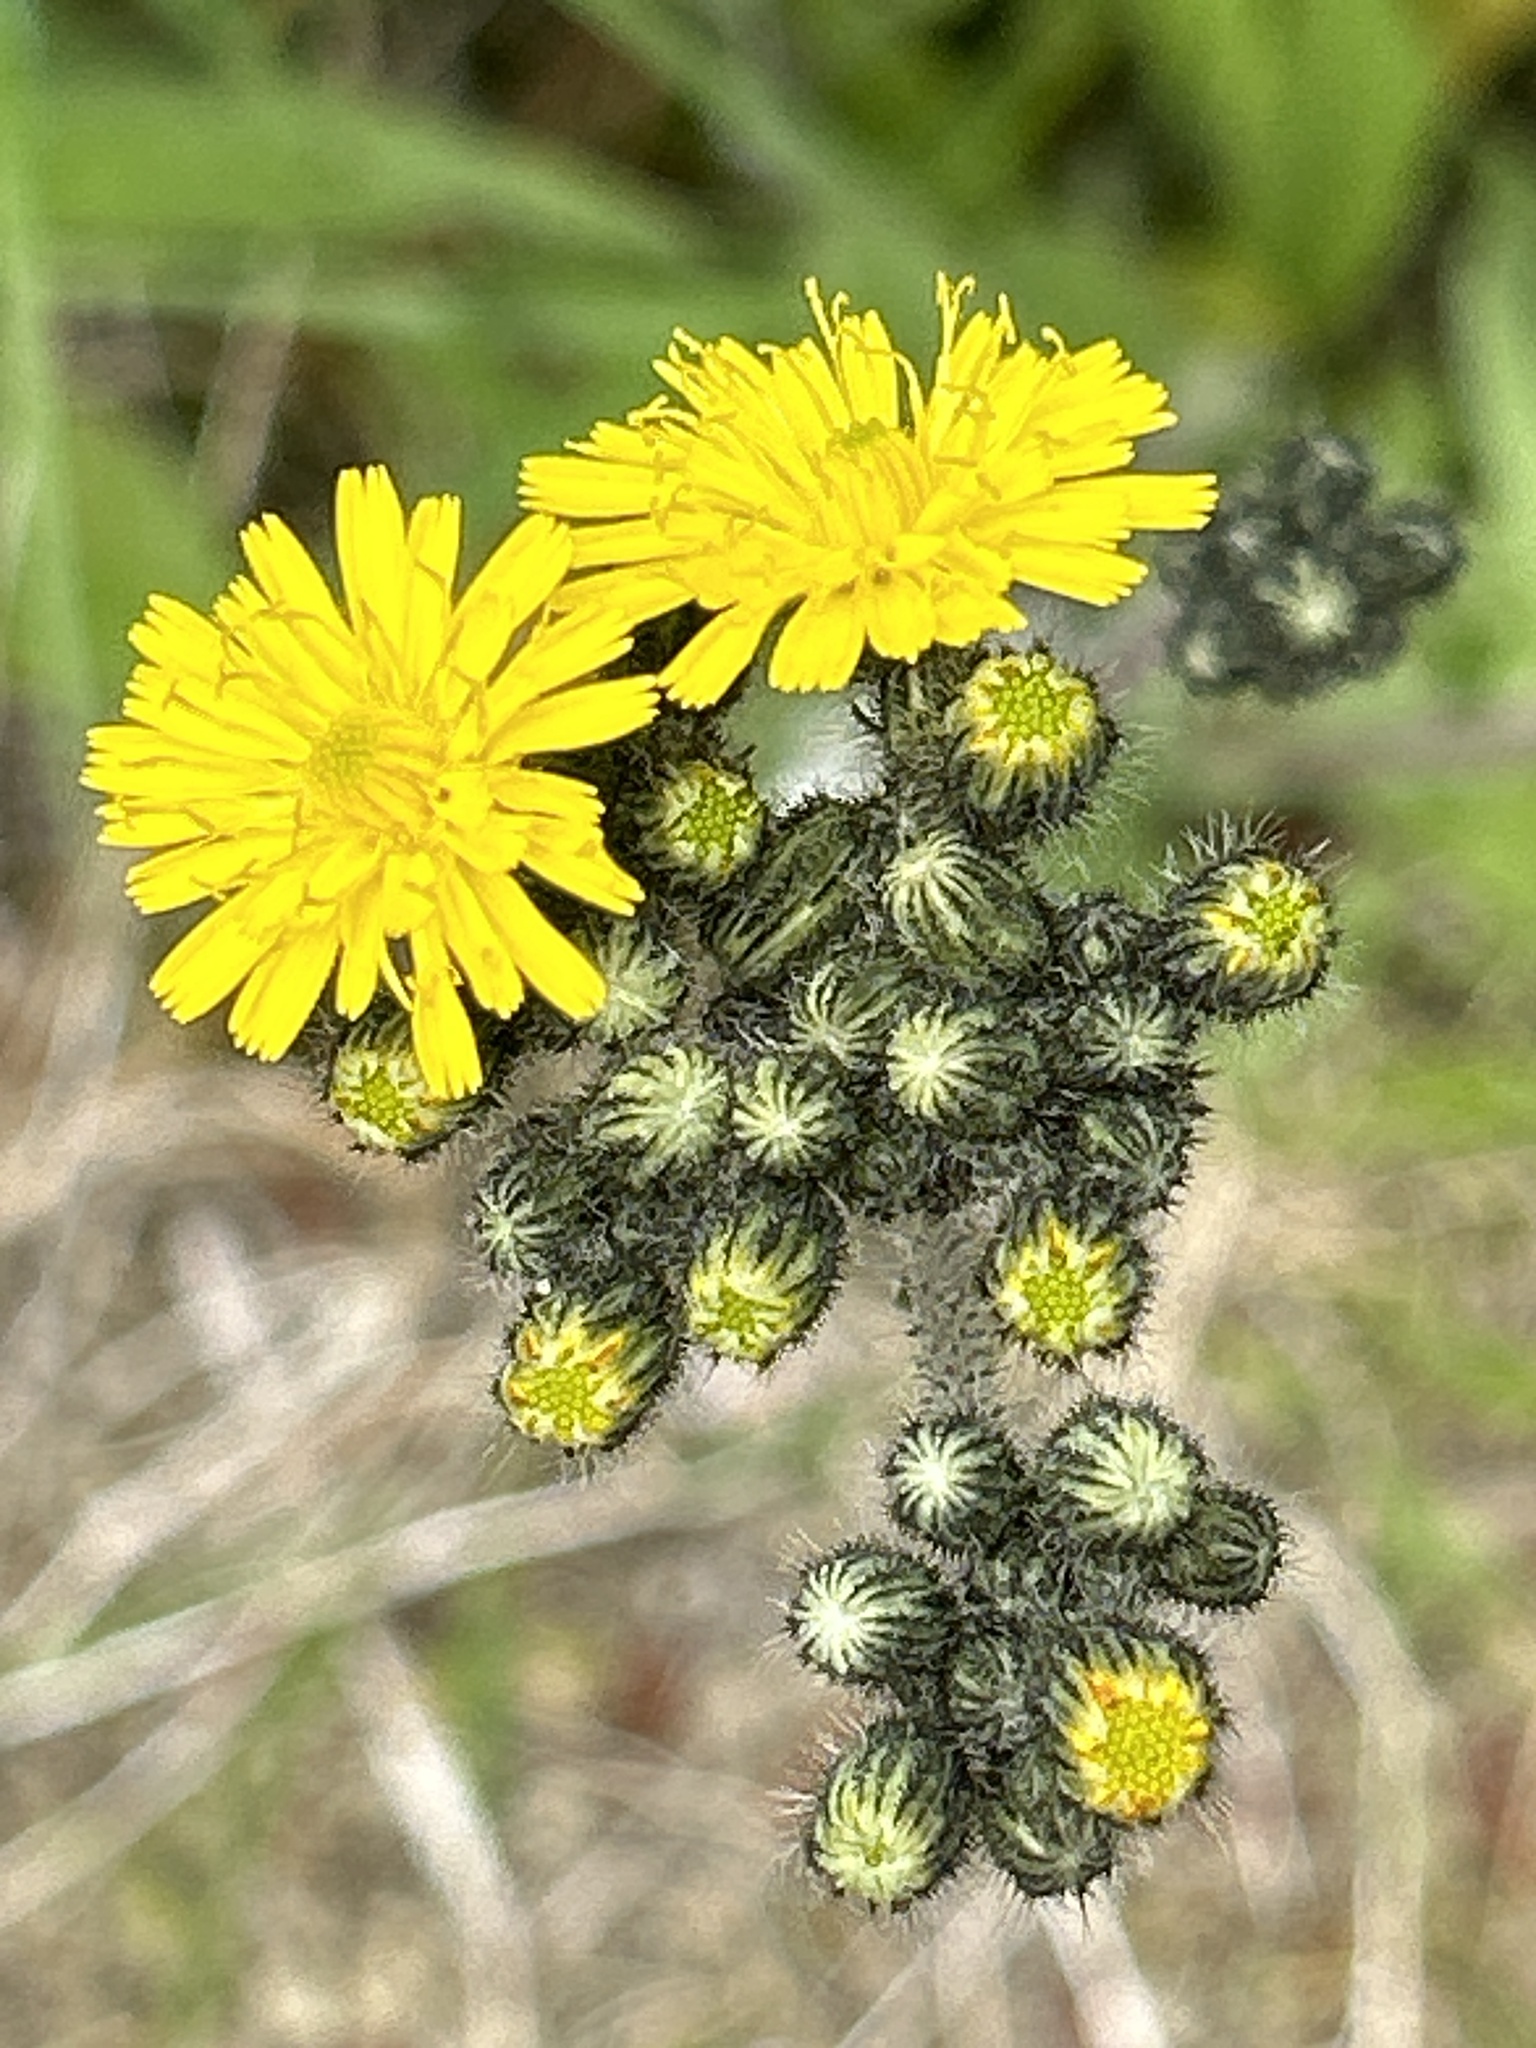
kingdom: Plantae
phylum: Tracheophyta
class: Magnoliopsida
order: Asterales
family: Asteraceae
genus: Pilosella
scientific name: Pilosella caespitosa
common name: Yellow fox-and-cubs
